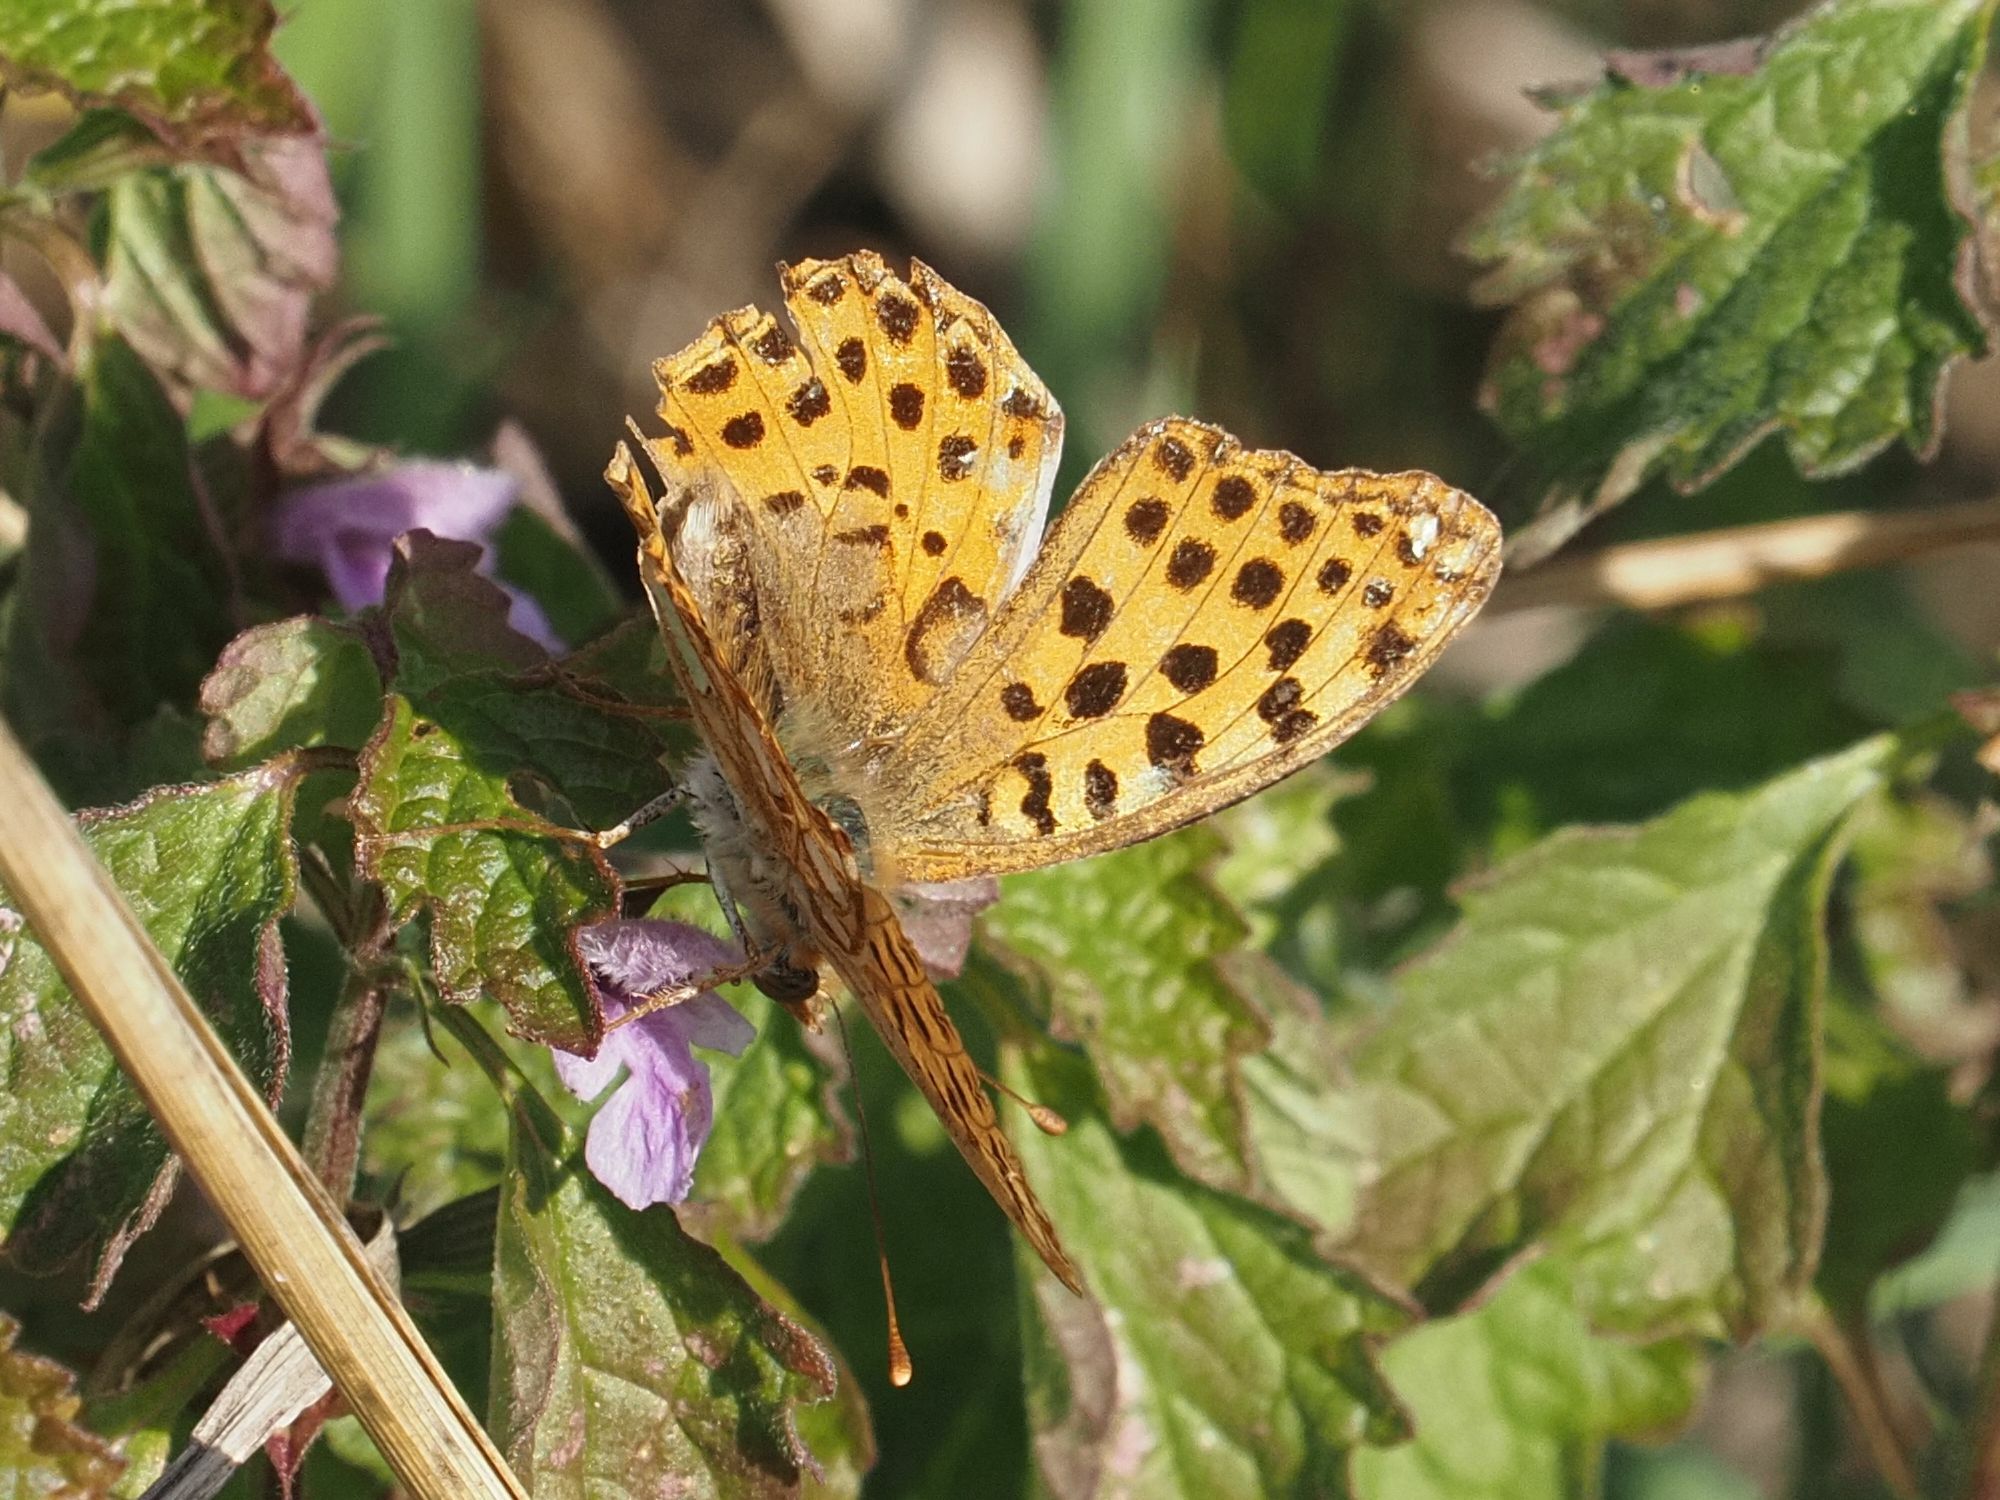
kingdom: Animalia
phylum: Arthropoda
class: Insecta
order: Lepidoptera
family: Nymphalidae
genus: Issoria
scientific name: Issoria lathonia
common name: Queen of spain fritillary
